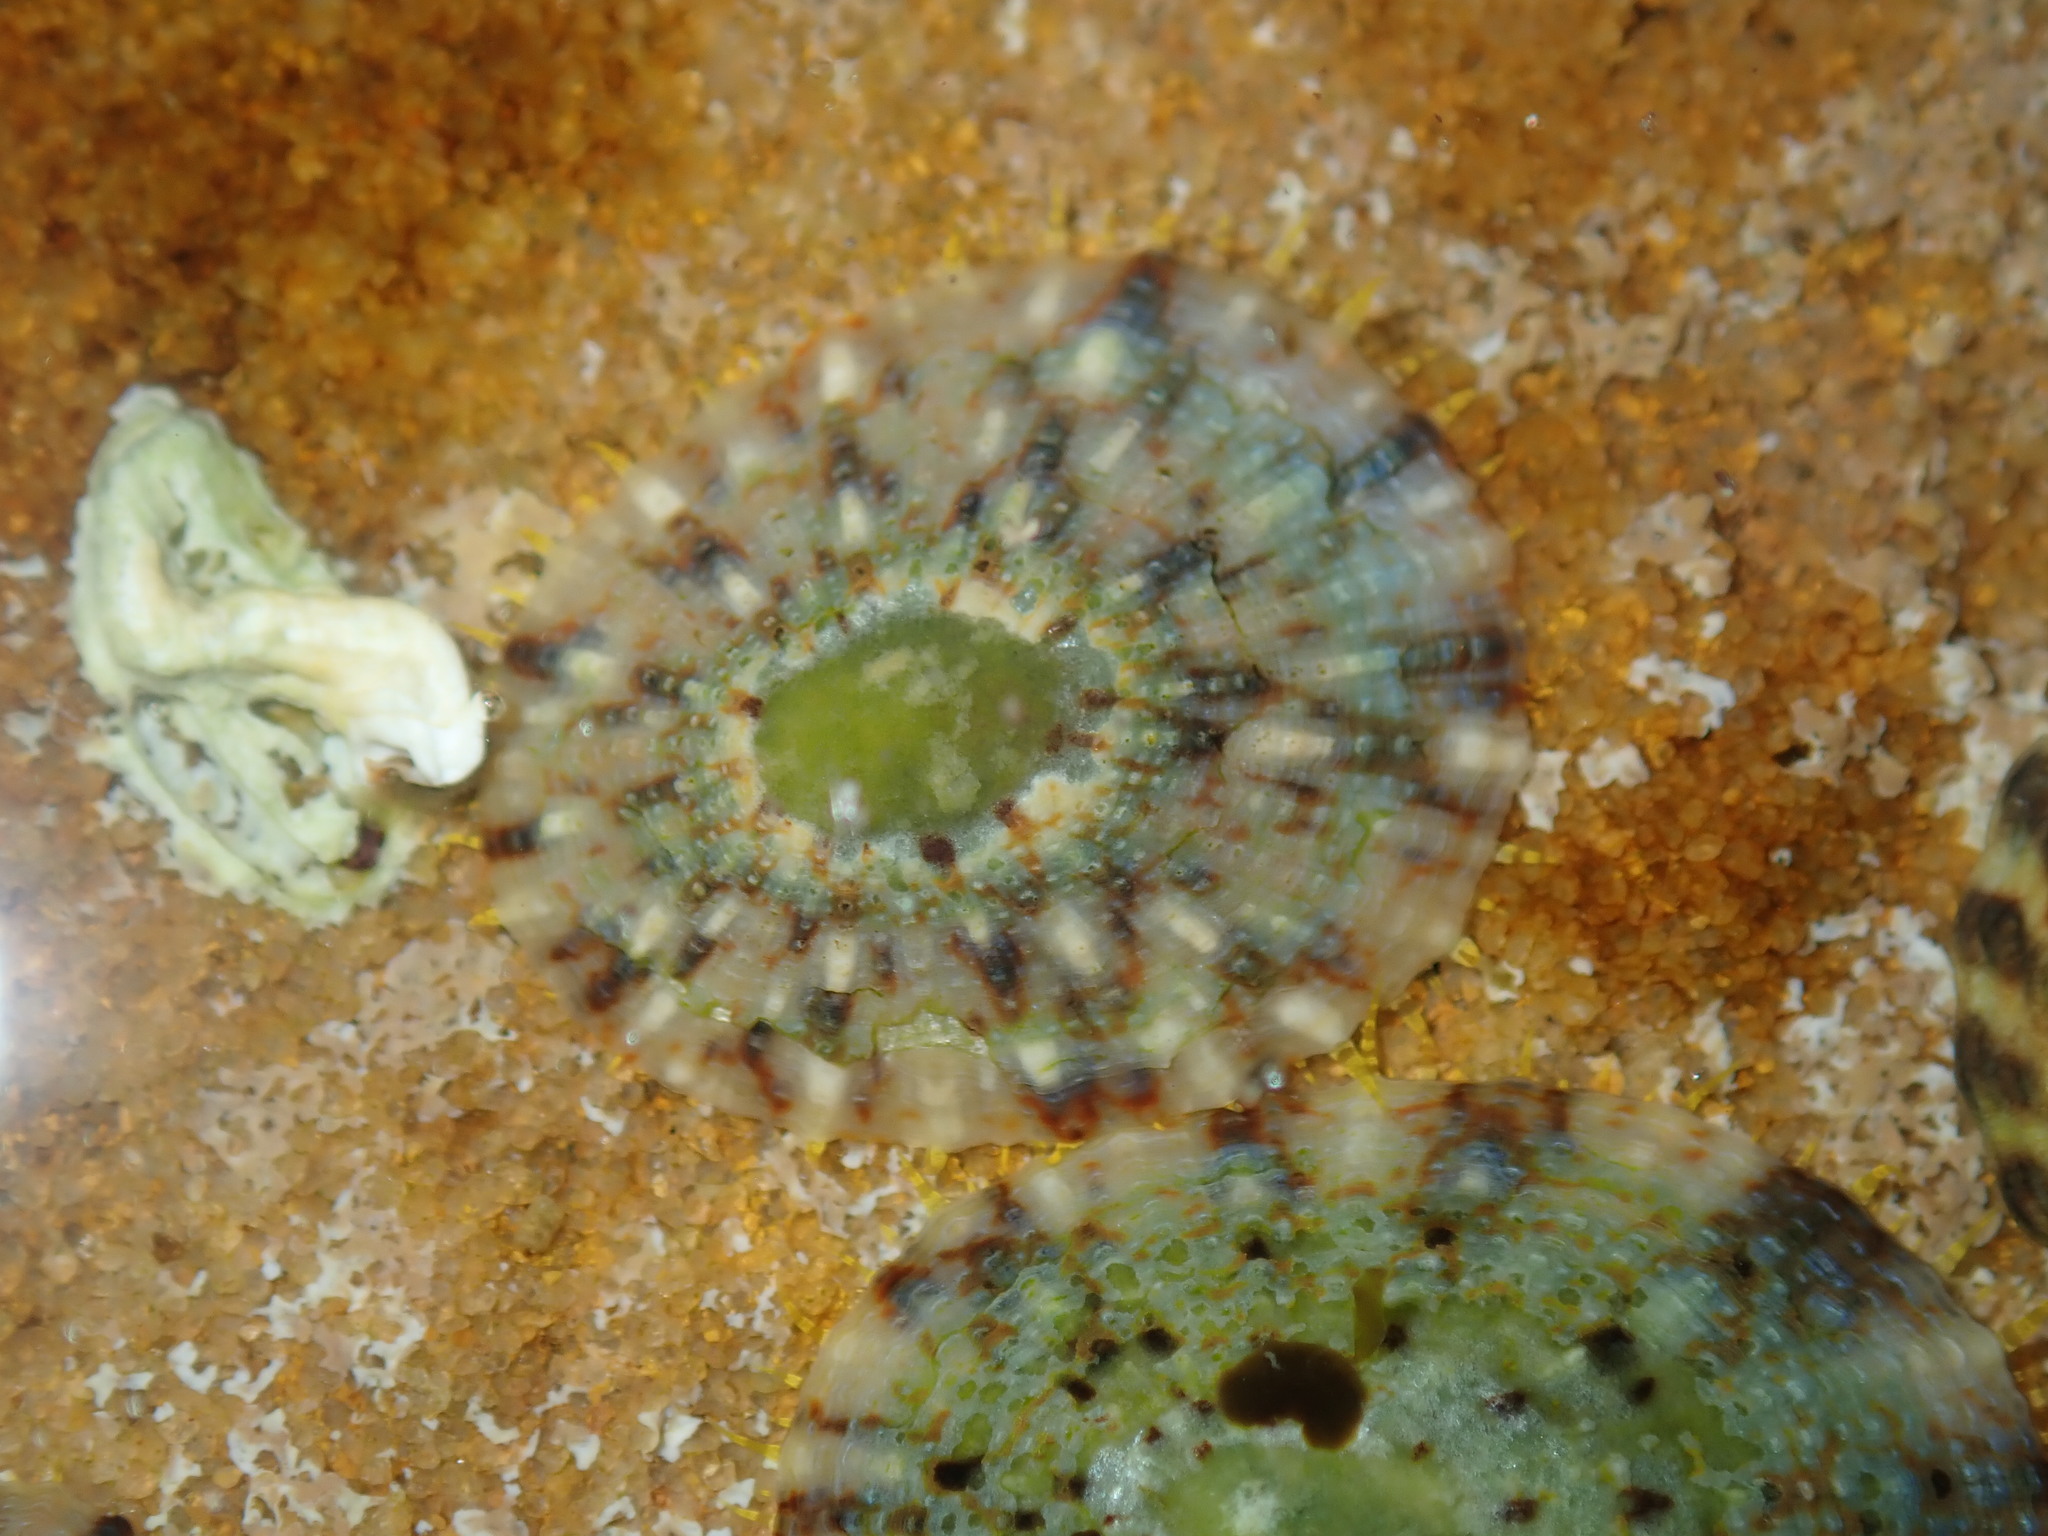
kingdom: Animalia
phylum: Mollusca
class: Gastropoda
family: Nacellidae
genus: Cellana
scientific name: Cellana tramoserica
